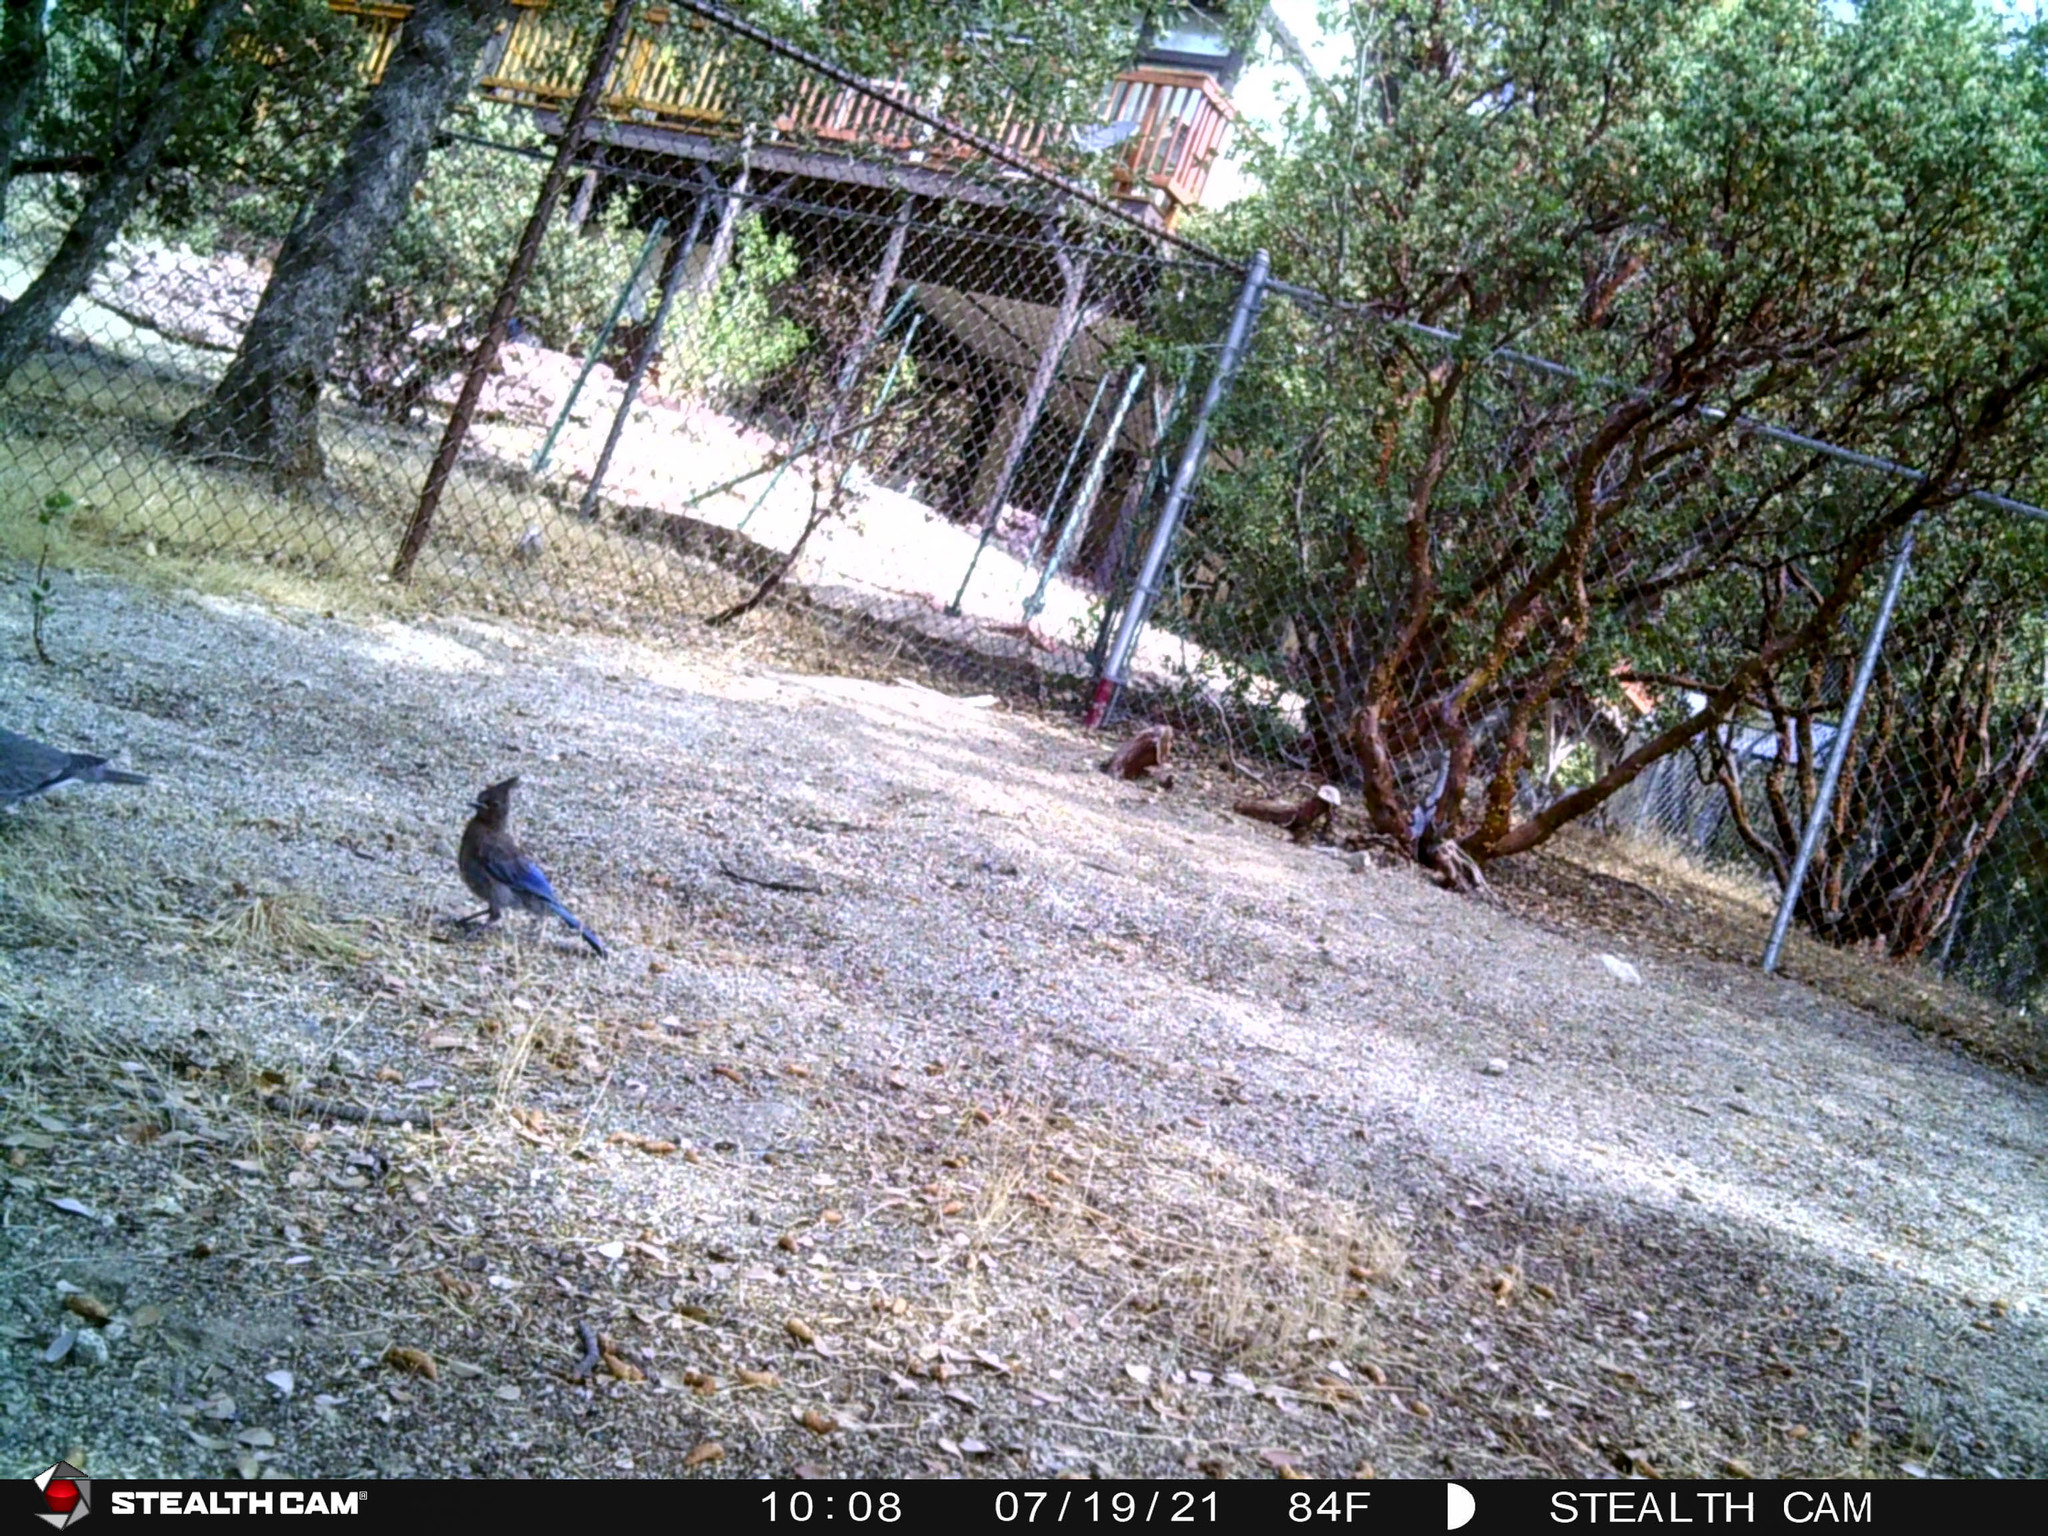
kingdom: Animalia
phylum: Chordata
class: Aves
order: Passeriformes
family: Corvidae
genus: Cyanocitta
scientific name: Cyanocitta stelleri
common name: Steller's jay
